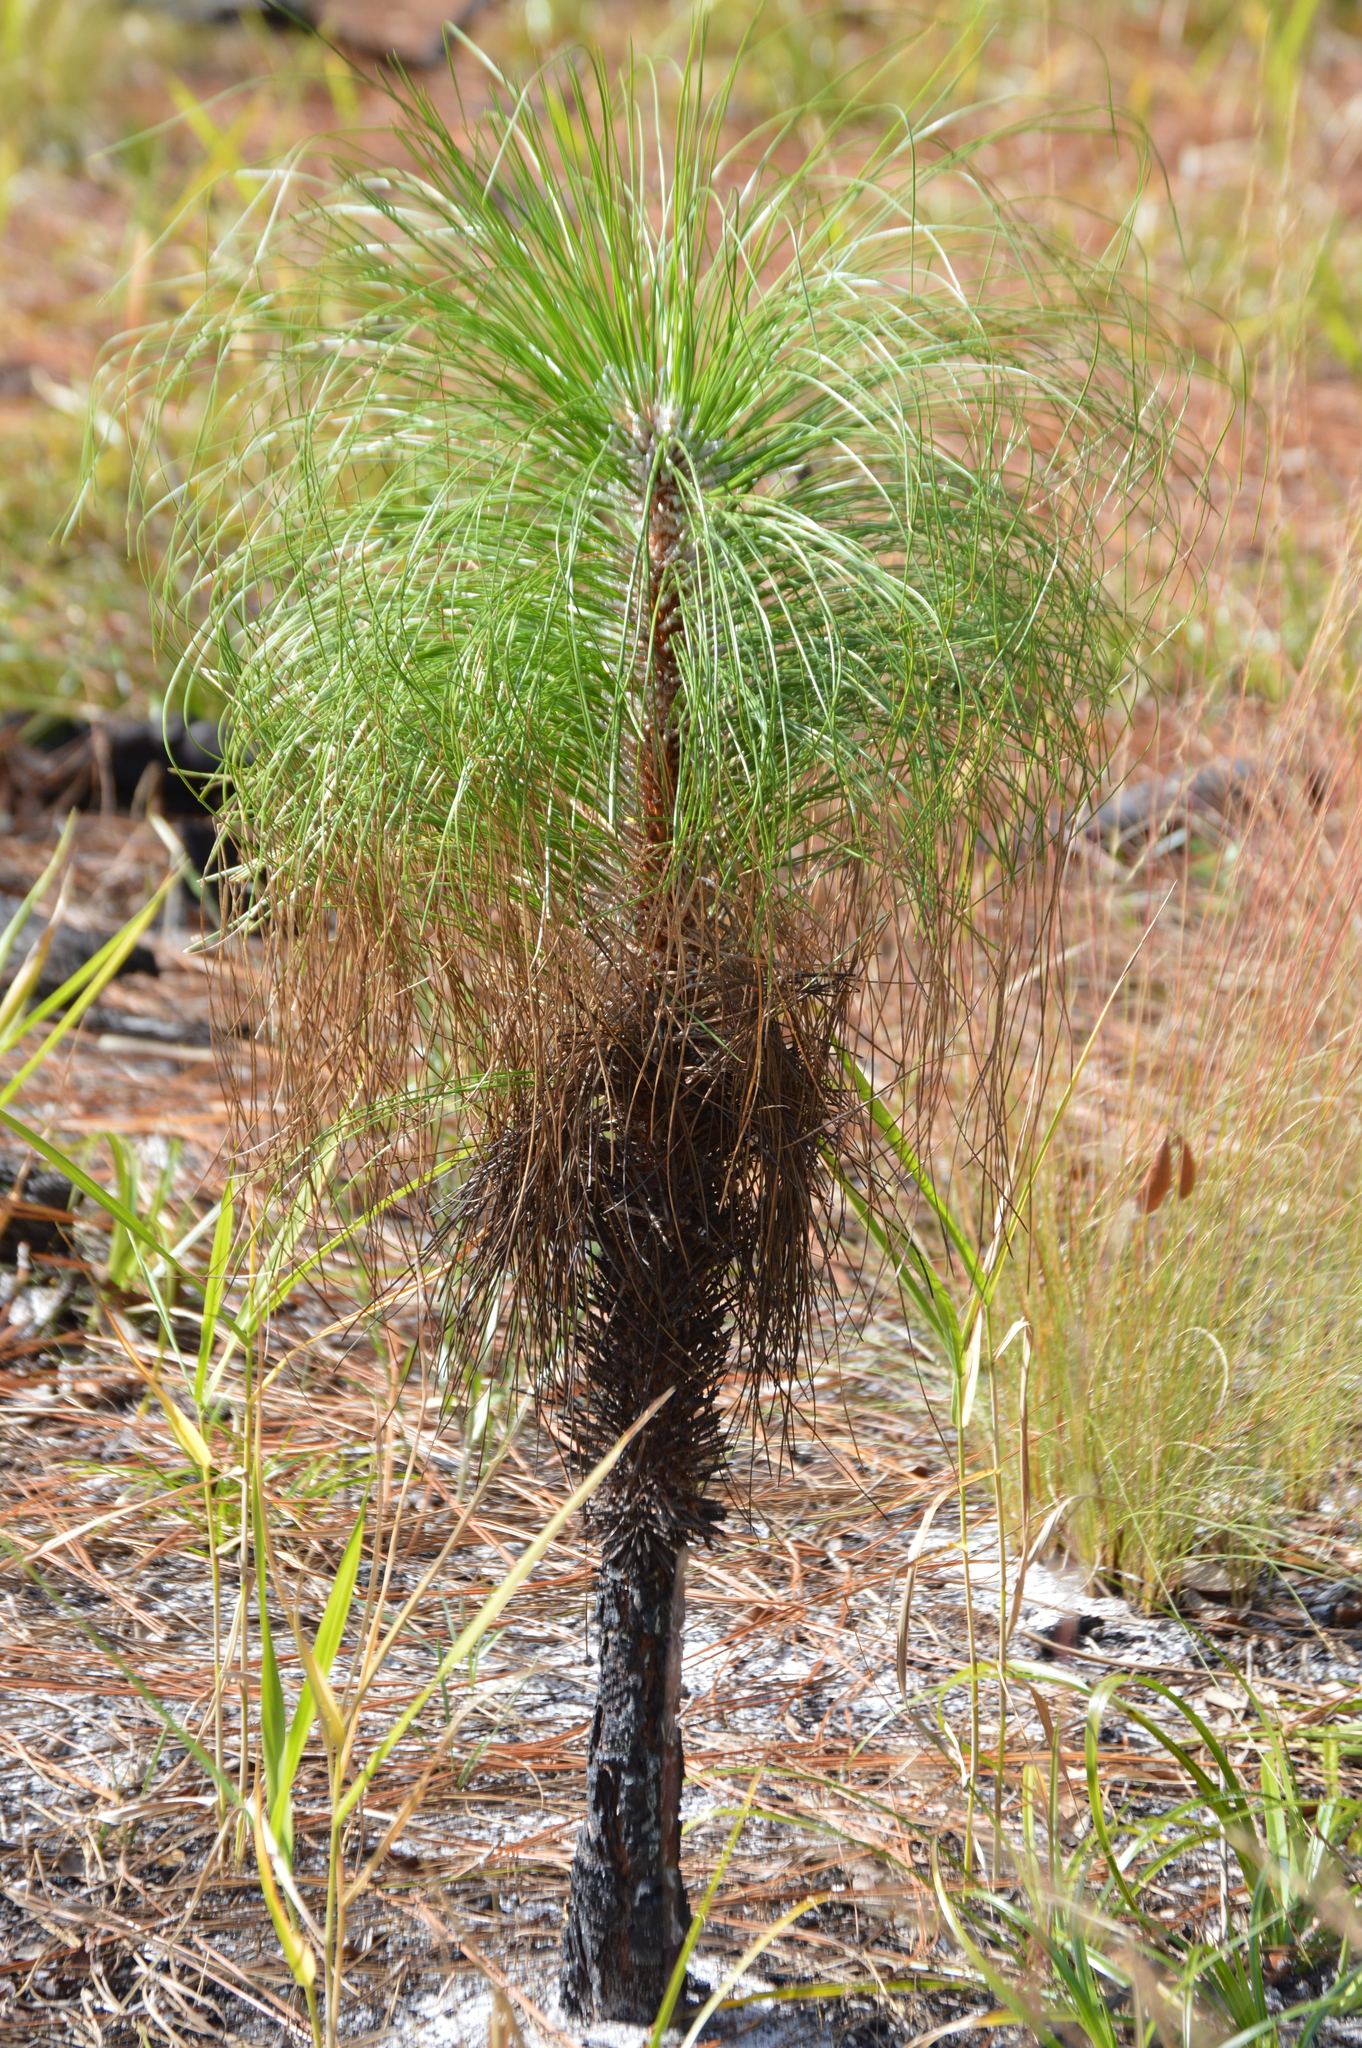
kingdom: Plantae
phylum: Tracheophyta
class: Pinopsida
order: Pinales
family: Pinaceae
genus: Pinus
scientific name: Pinus palustris
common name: Longleaf pine
